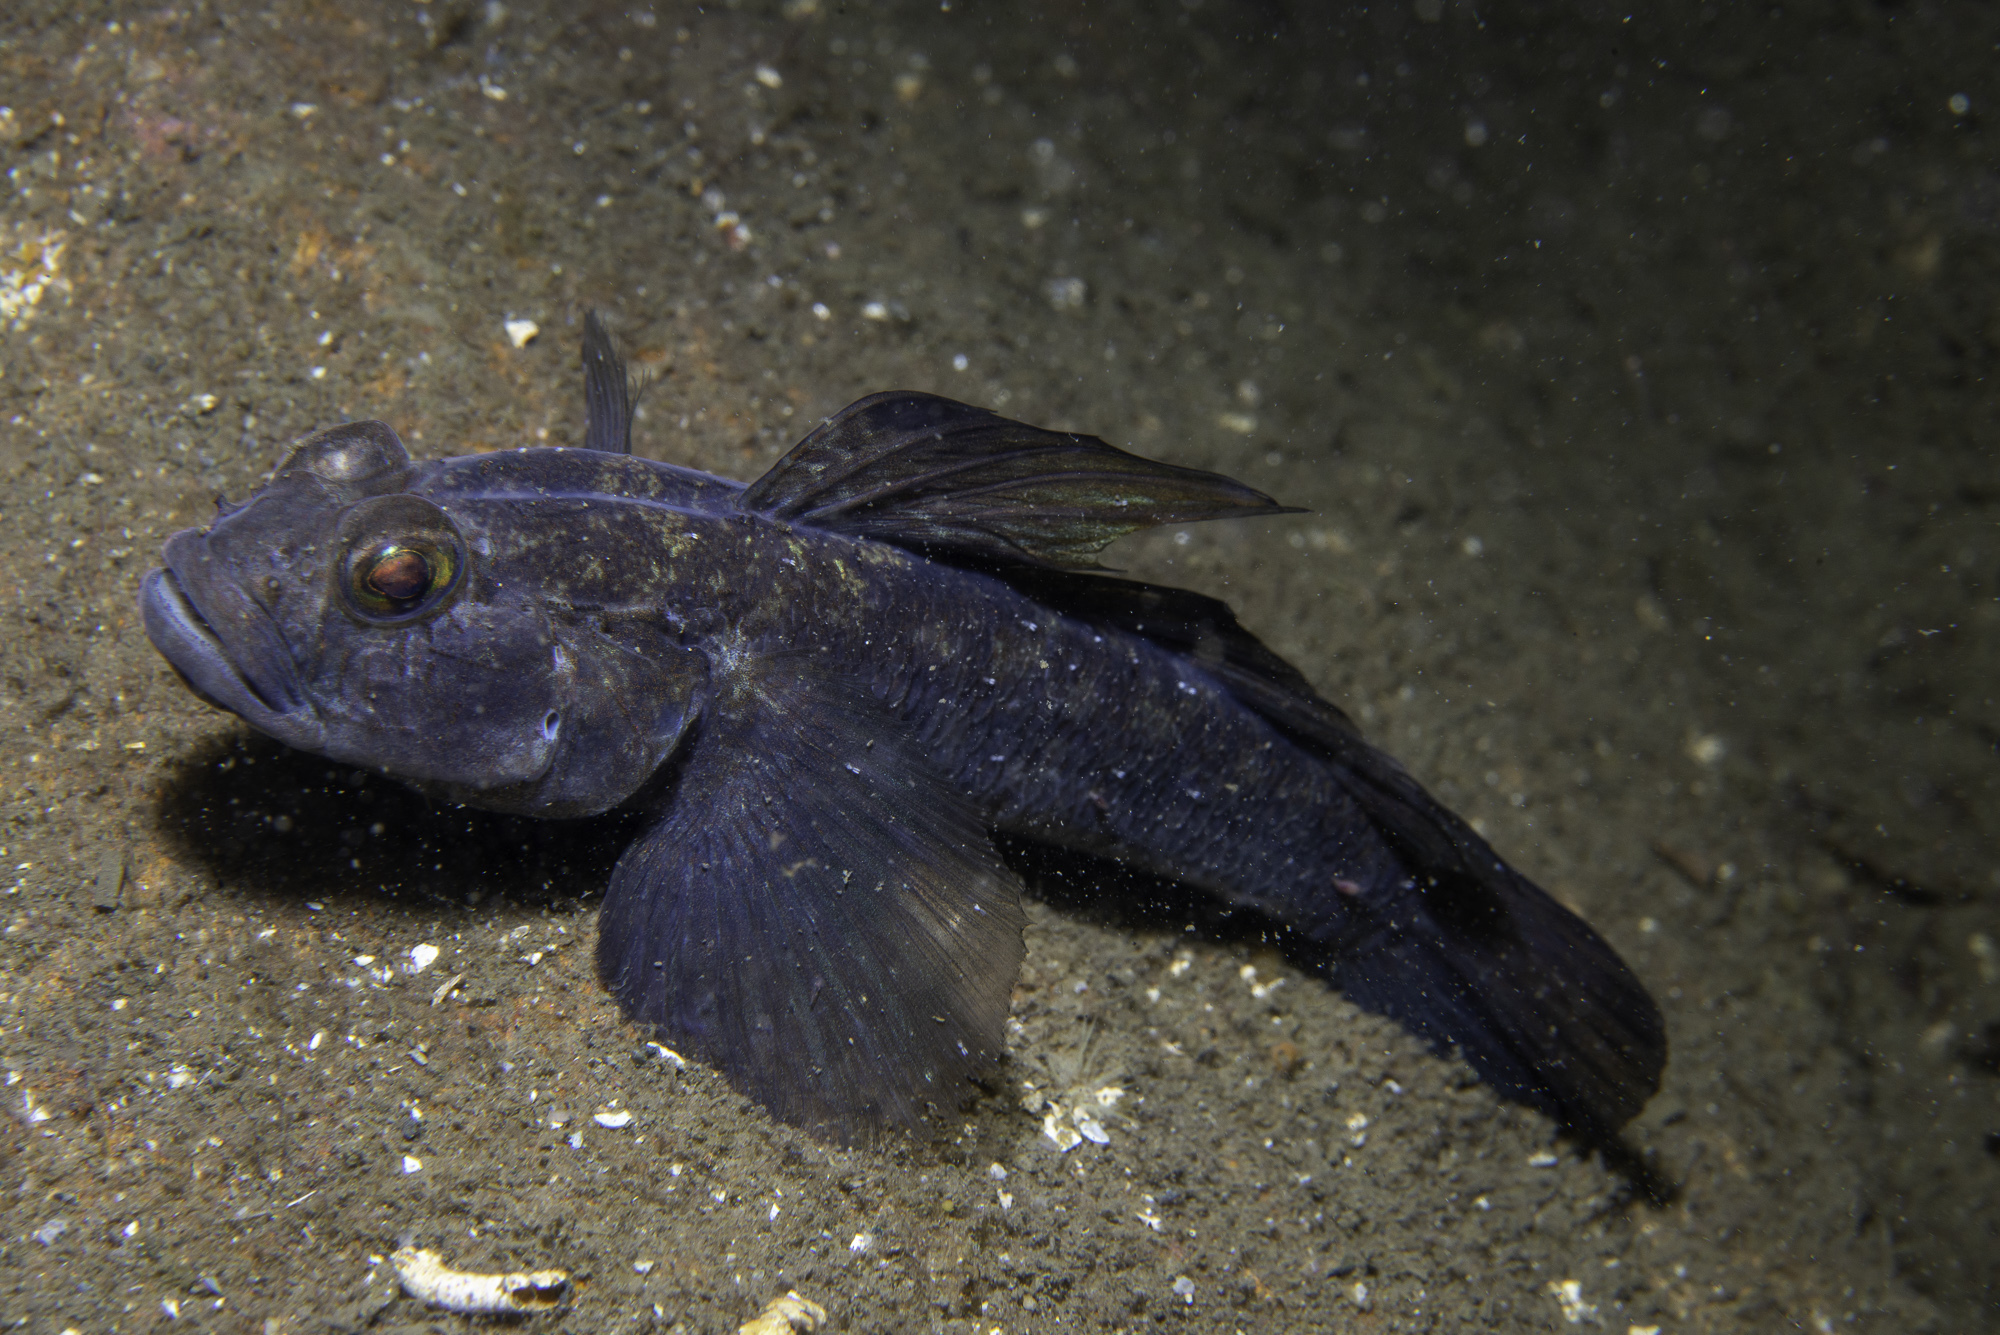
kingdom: Animalia
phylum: Chordata
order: Perciformes
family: Gobiidae
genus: Gobius
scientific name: Gobius niger
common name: Black goby
